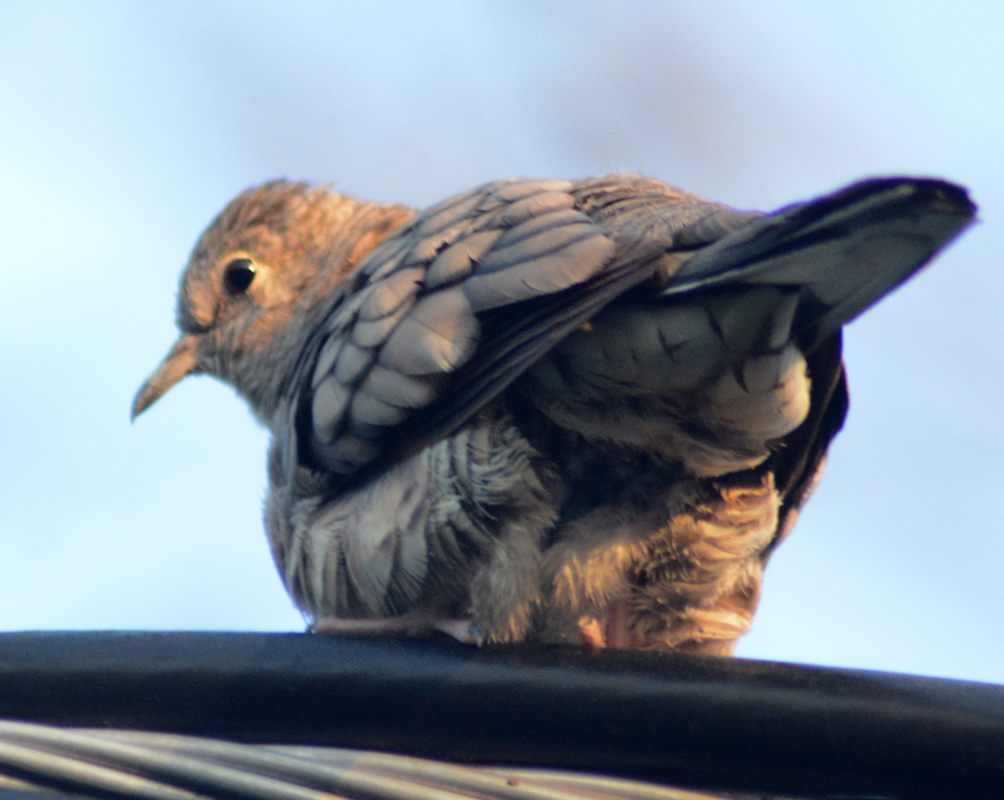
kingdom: Animalia
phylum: Chordata
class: Aves
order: Columbiformes
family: Columbidae
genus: Columbina
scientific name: Columbina inca
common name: Inca dove
